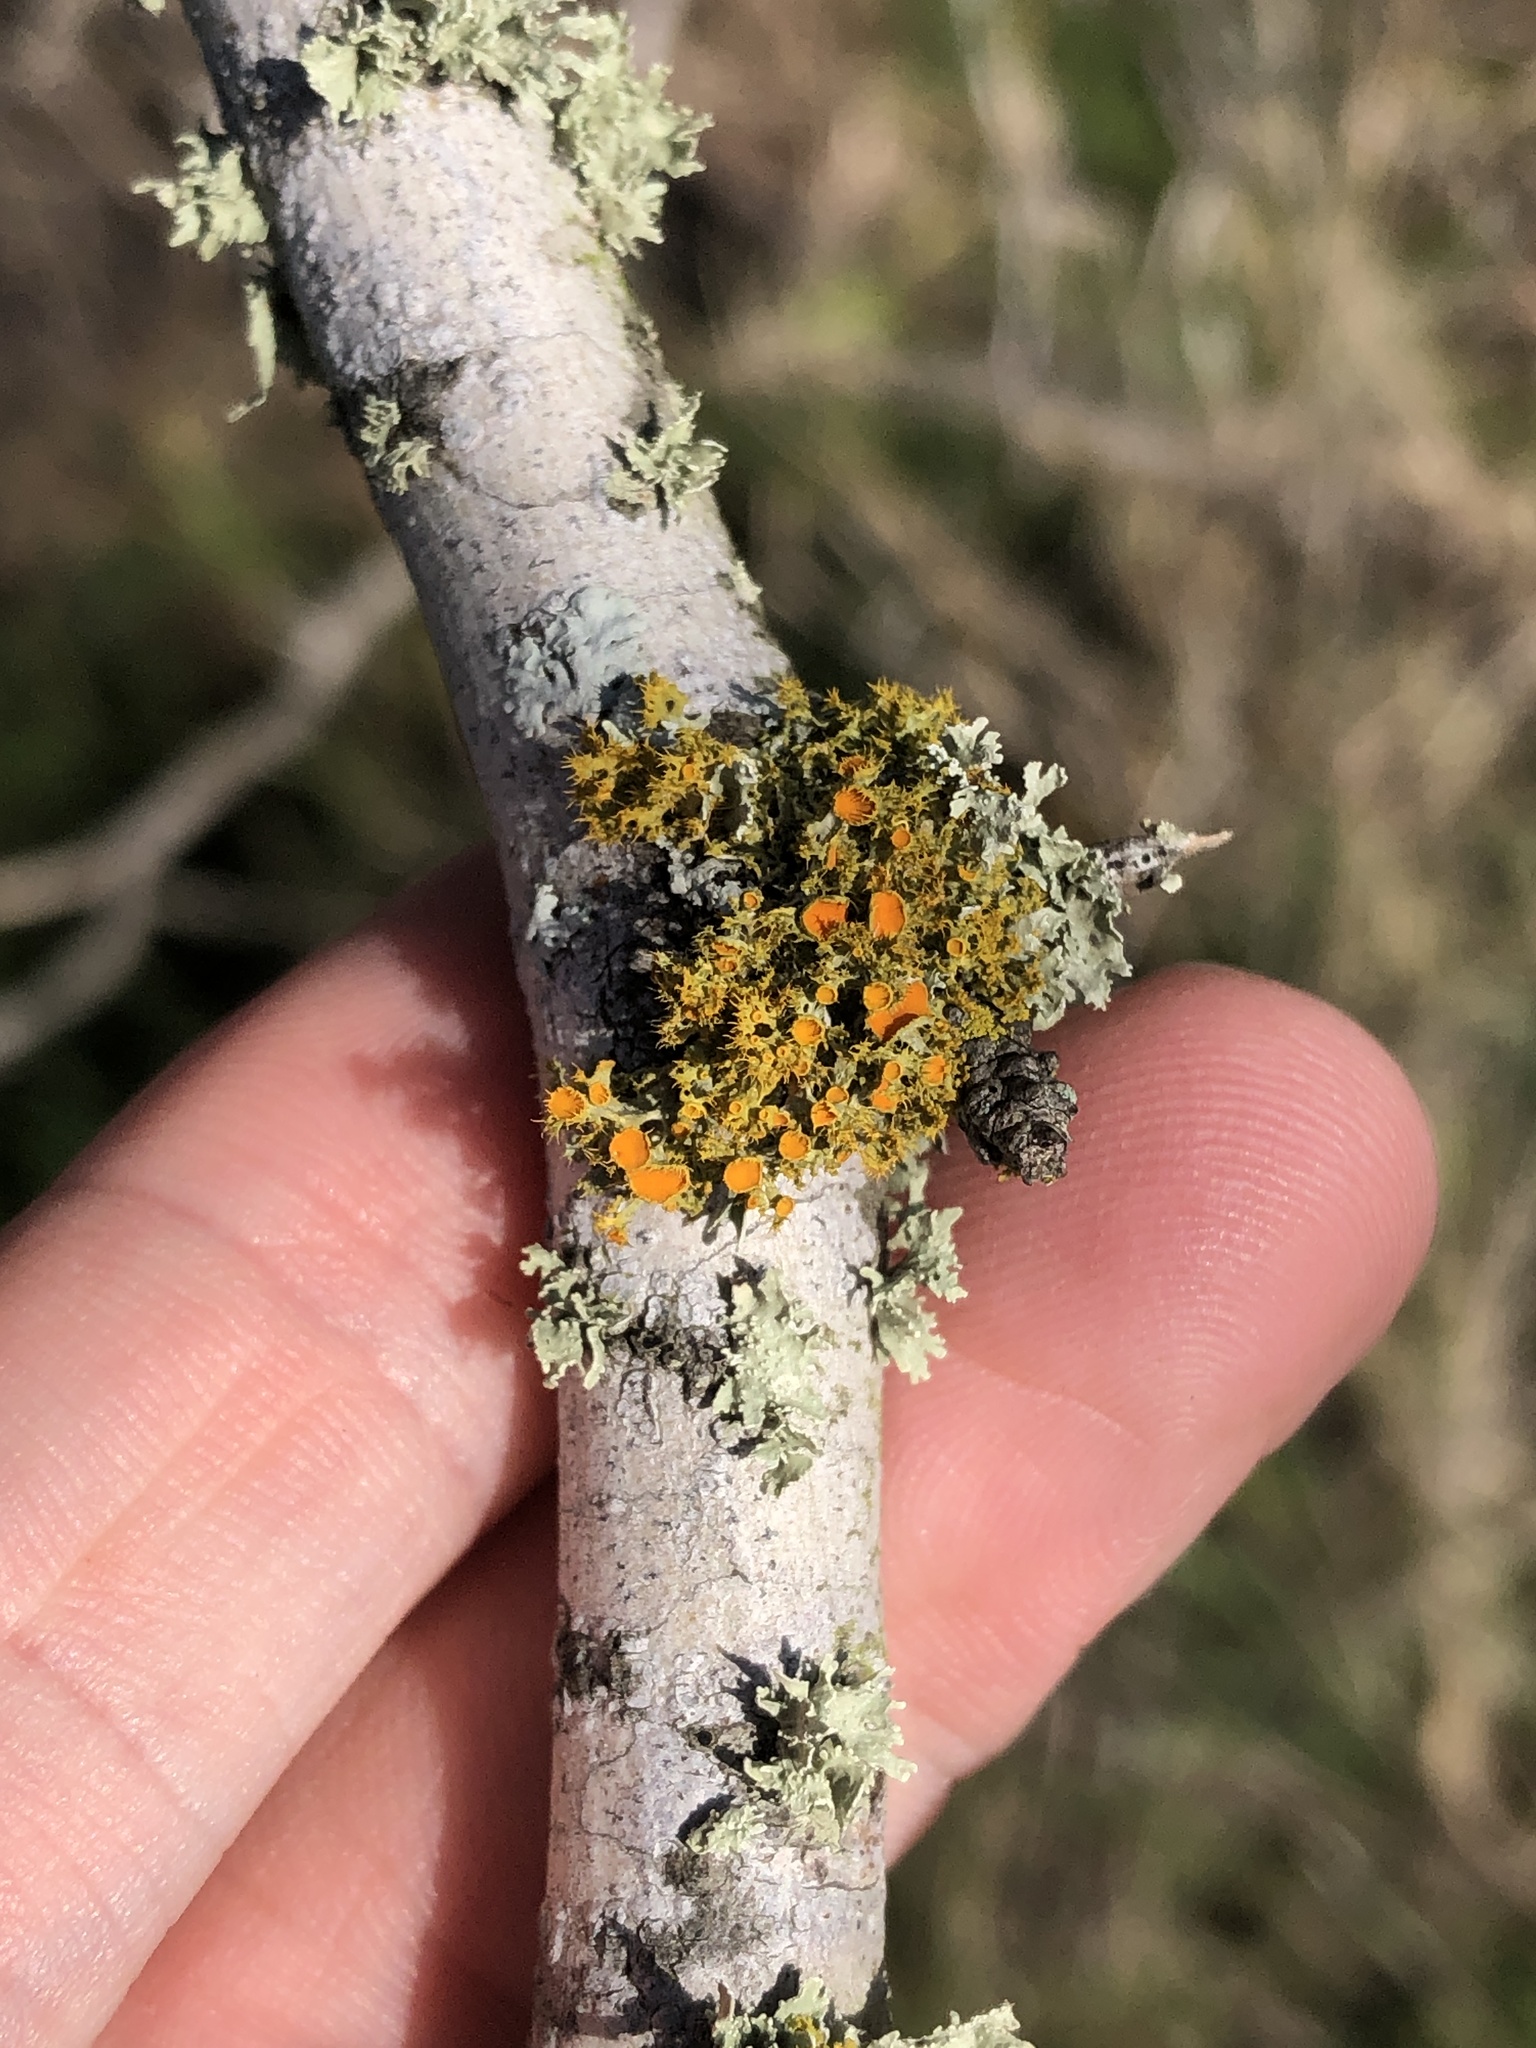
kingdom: Fungi
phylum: Ascomycota
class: Lecanoromycetes
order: Teloschistales
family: Teloschistaceae
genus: Niorma
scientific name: Niorma chrysophthalma
